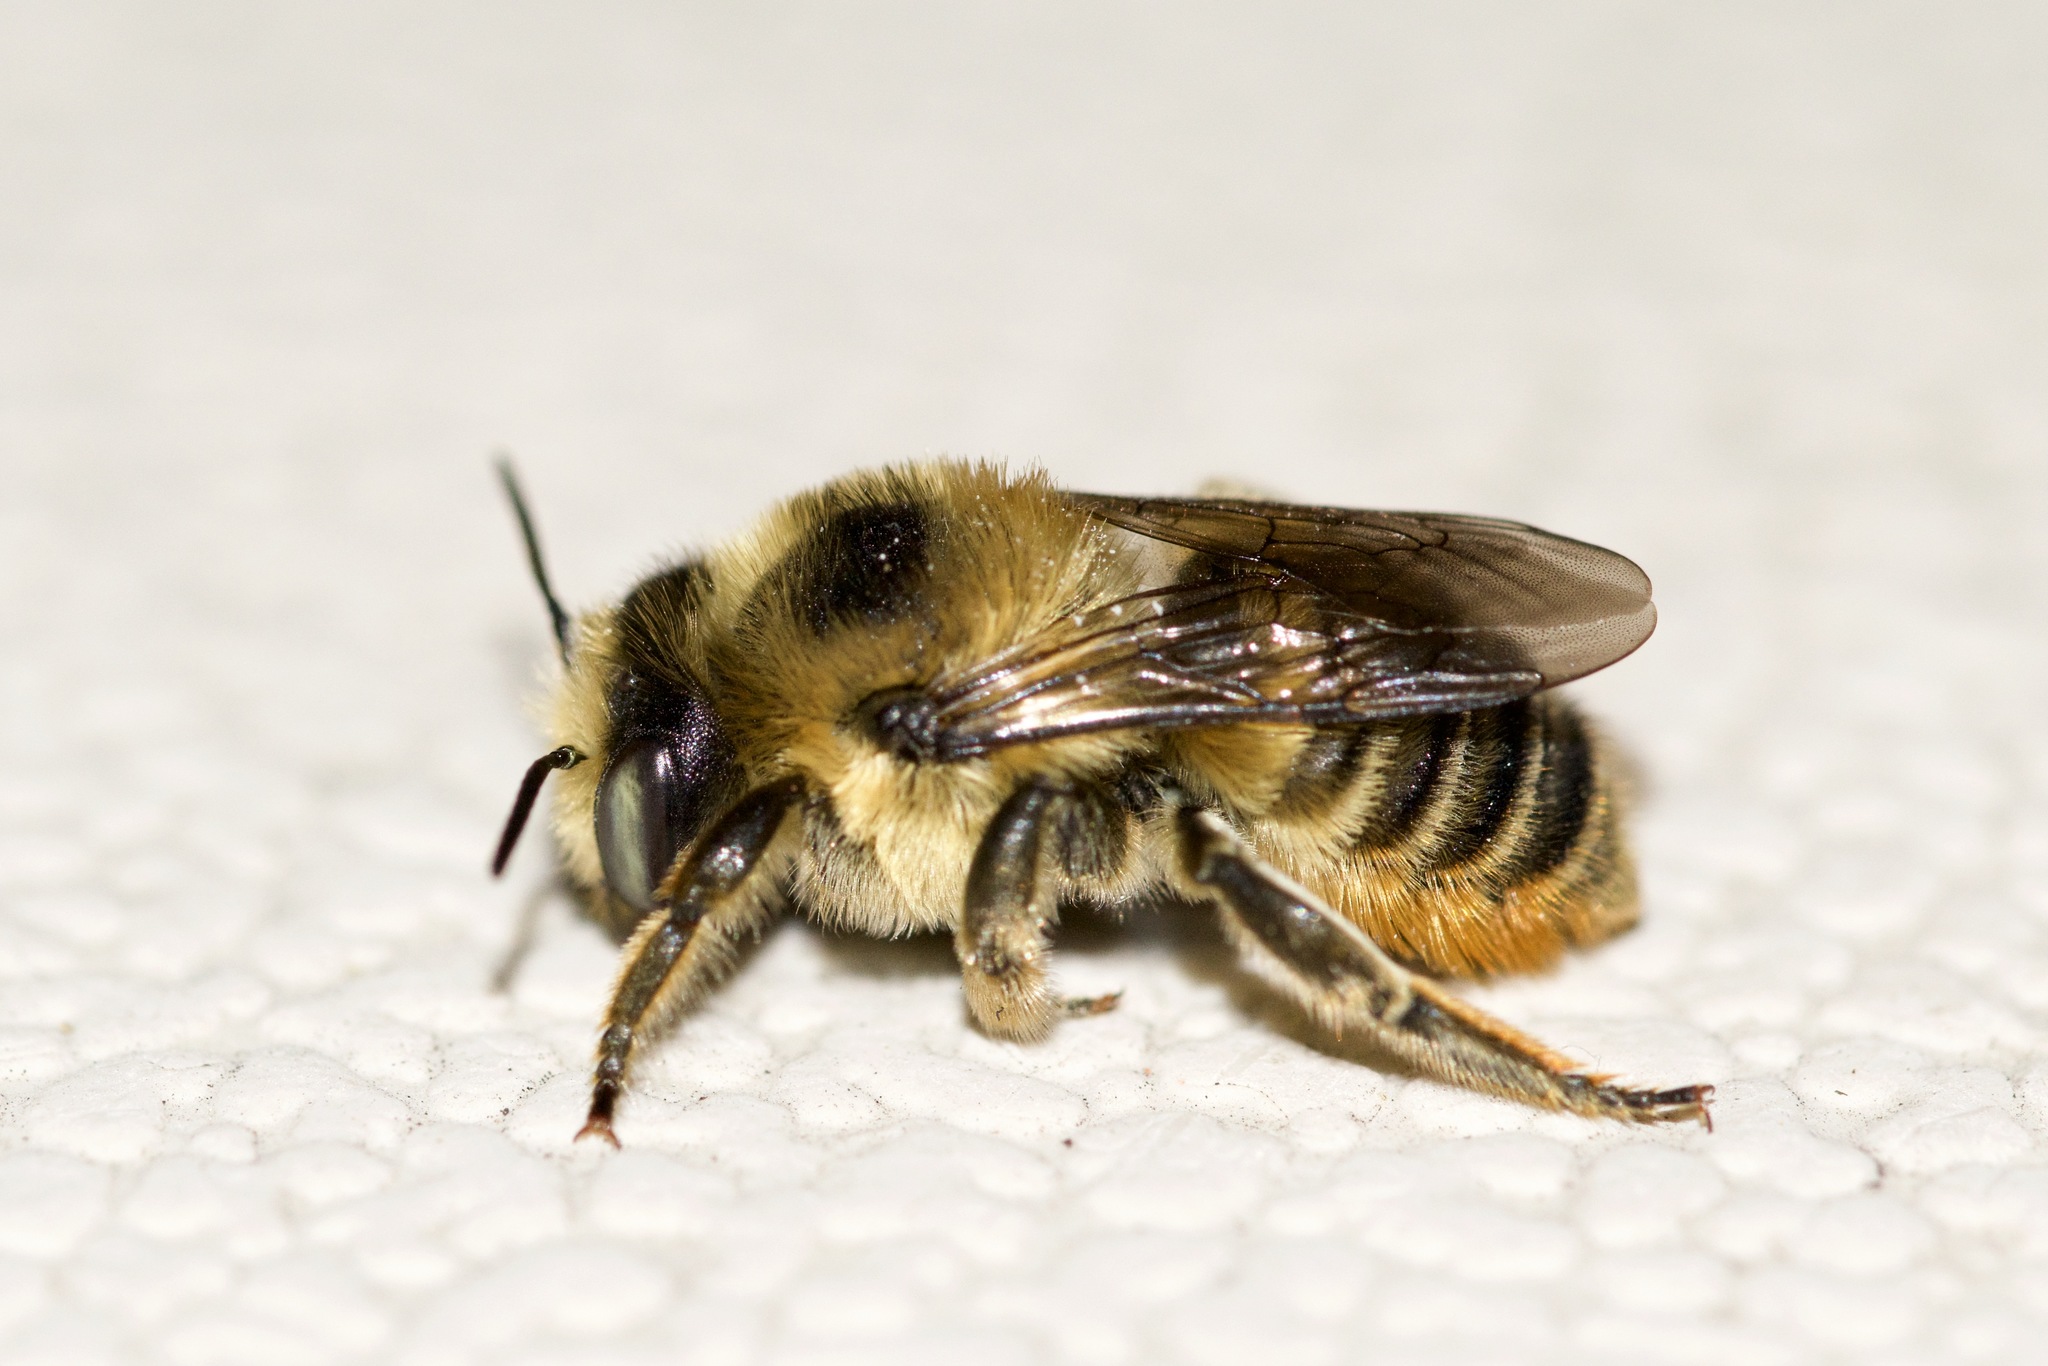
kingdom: Animalia
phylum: Arthropoda
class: Insecta
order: Hymenoptera
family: Megachilidae
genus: Megachile
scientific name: Megachile latimanus
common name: Leafcutting bee
